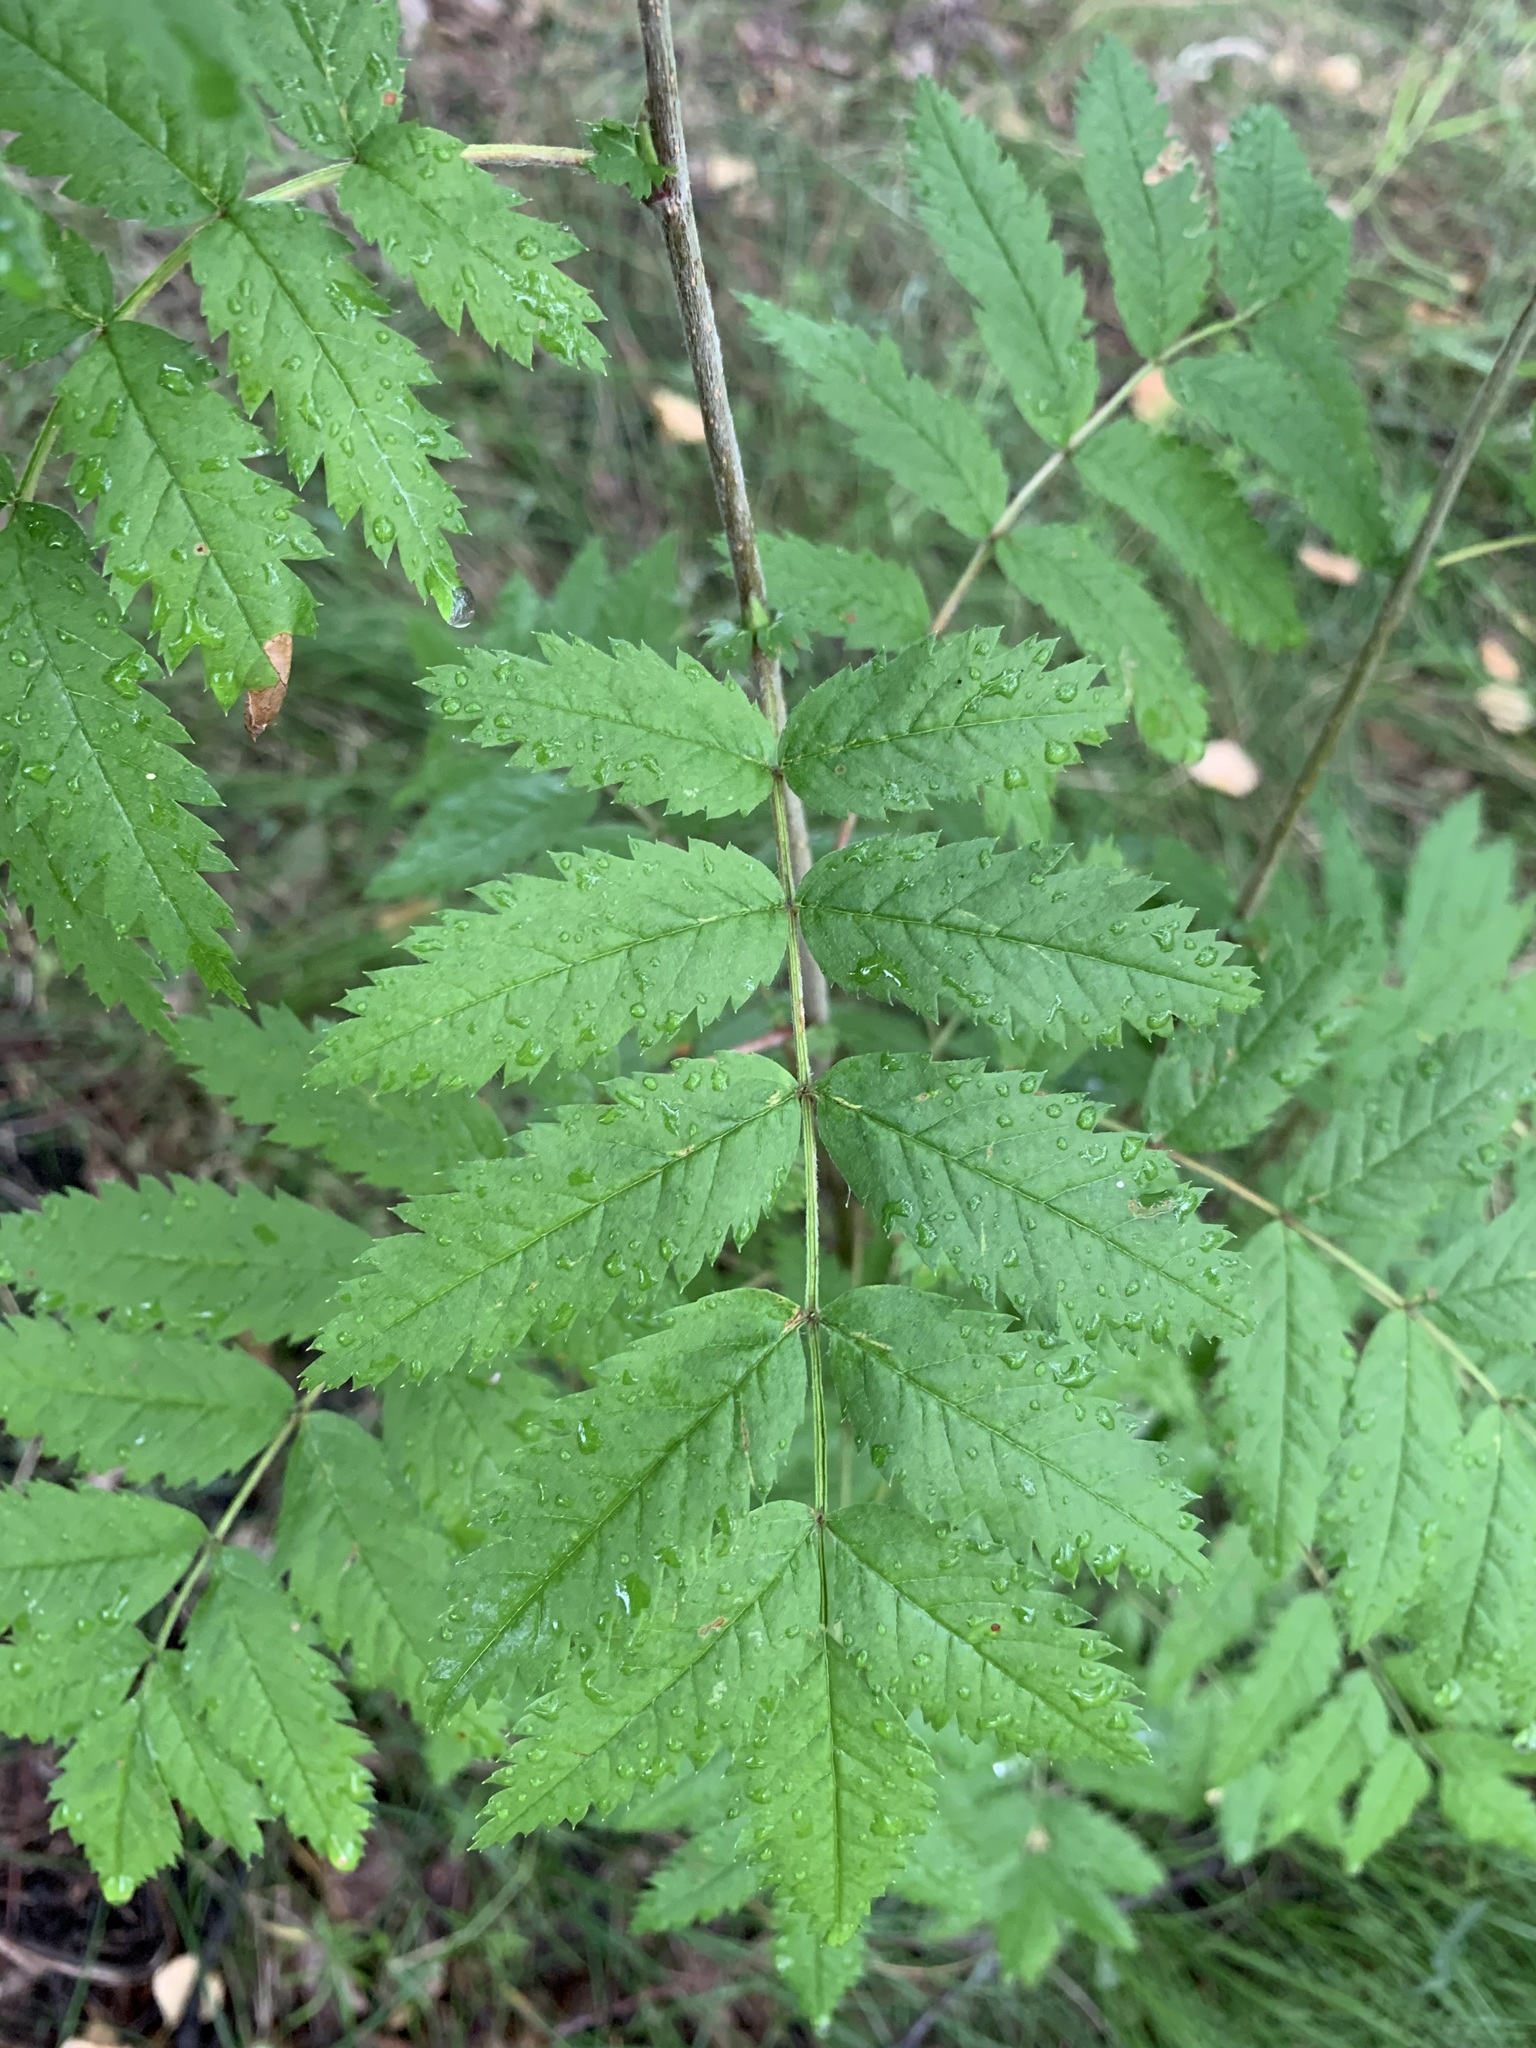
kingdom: Plantae
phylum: Tracheophyta
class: Magnoliopsida
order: Rosales
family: Rosaceae
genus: Sorbus
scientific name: Sorbus aucuparia
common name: Rowan
